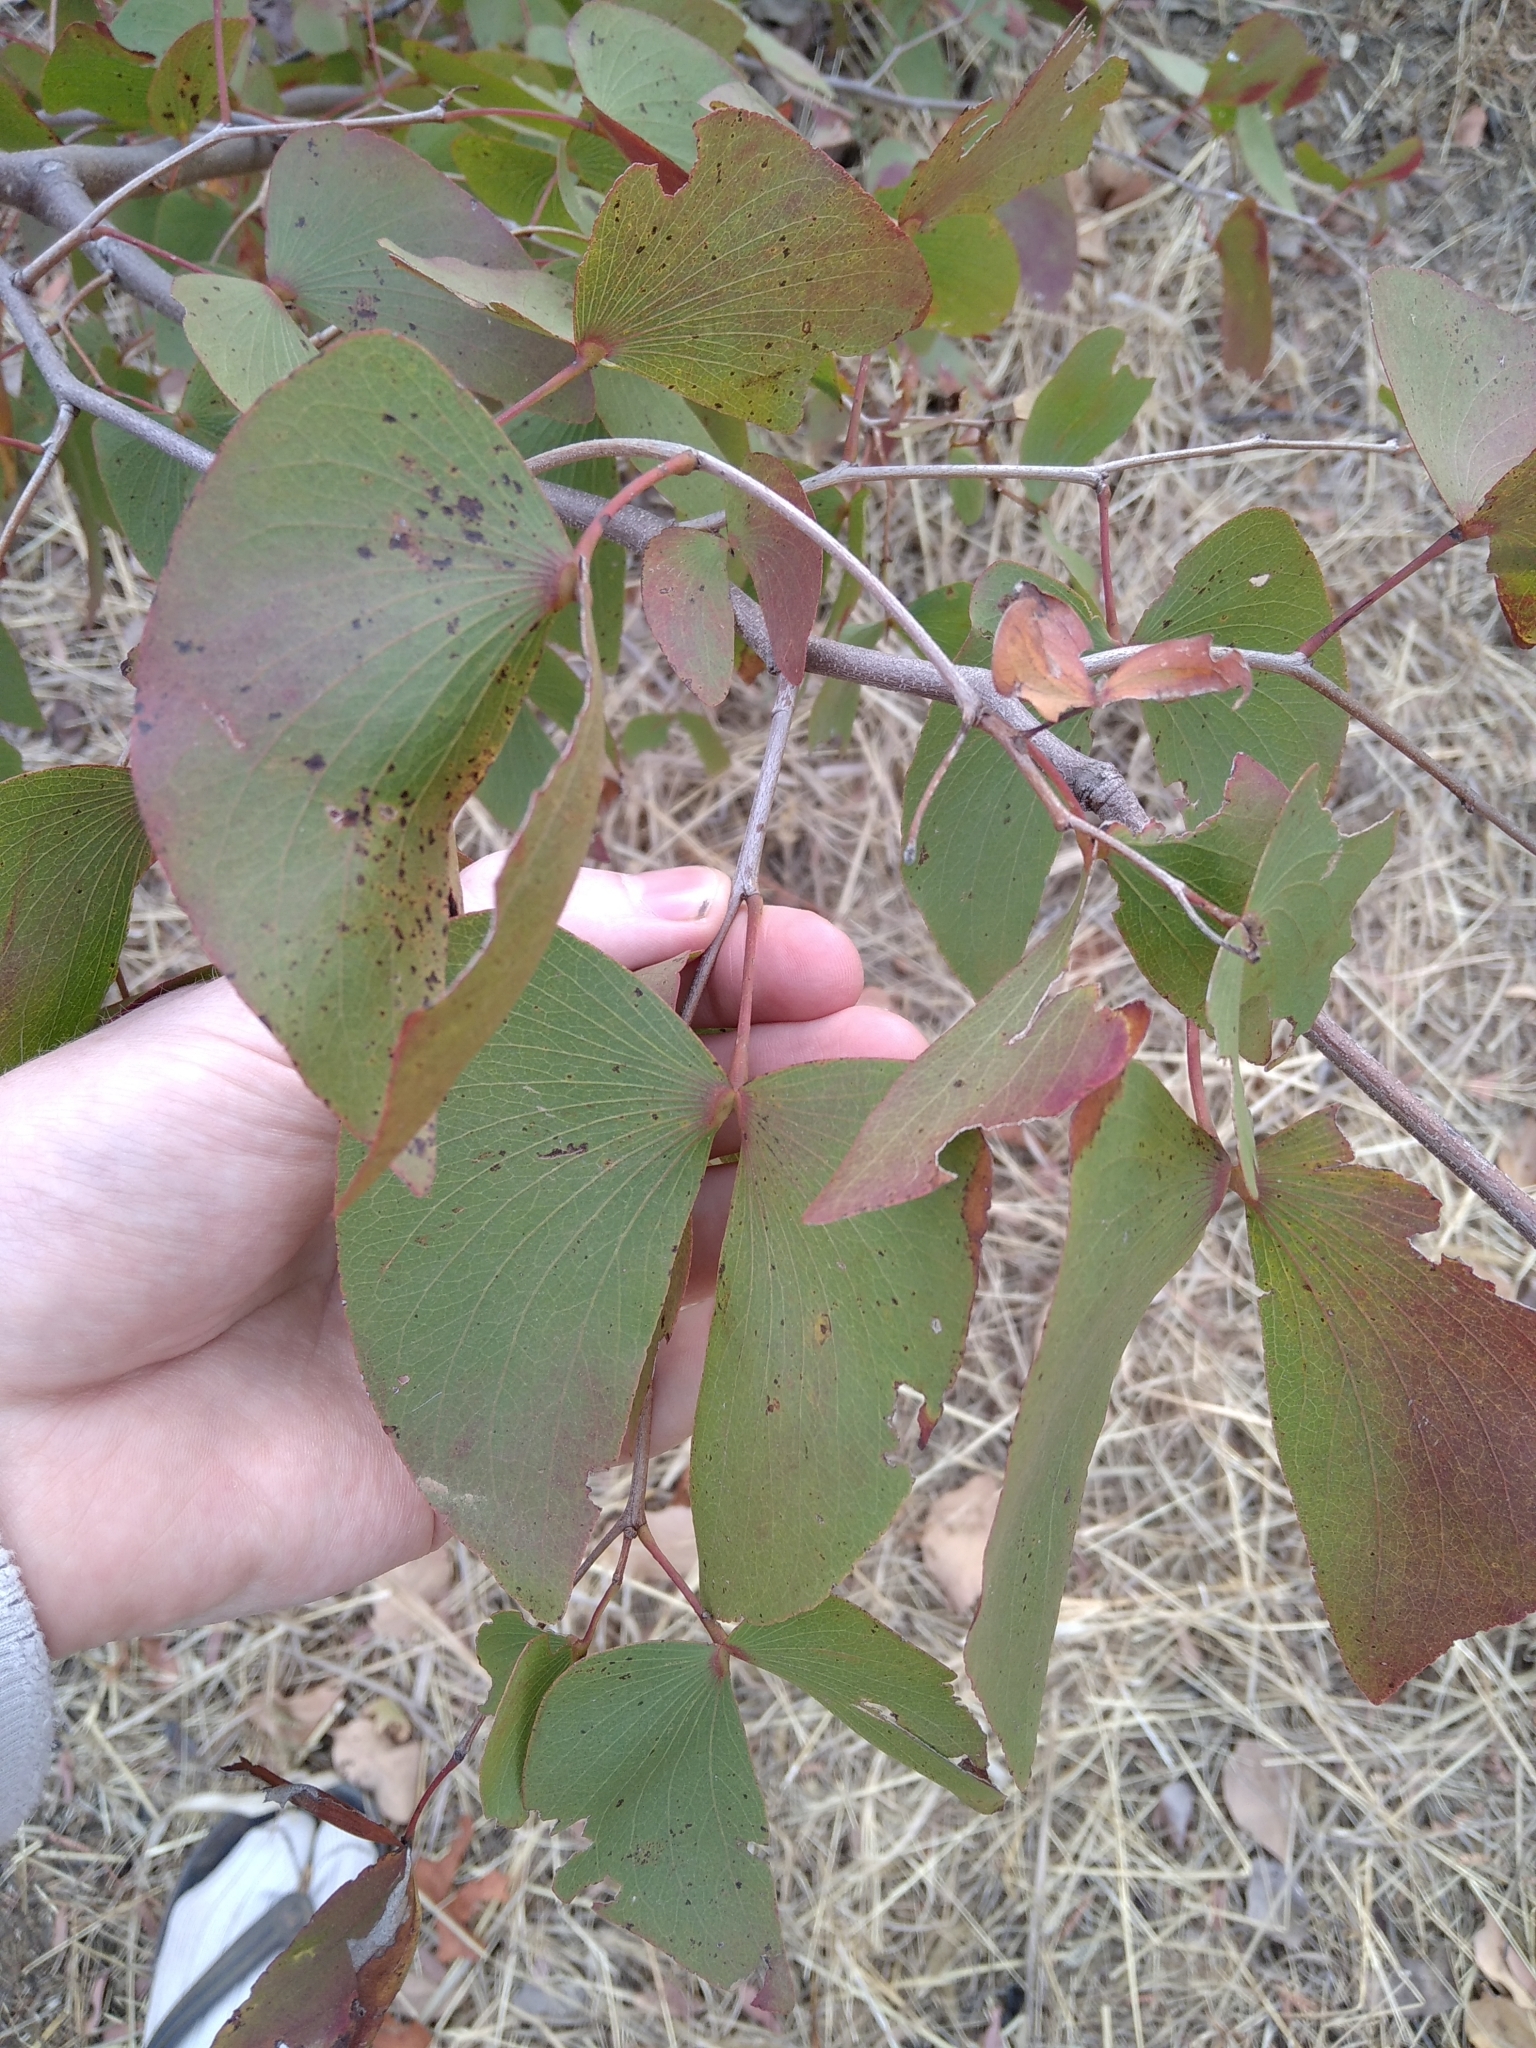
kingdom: Plantae
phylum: Tracheophyta
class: Magnoliopsida
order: Fabales
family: Fabaceae
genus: Colophospermum
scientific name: Colophospermum mopane
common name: Mopane
